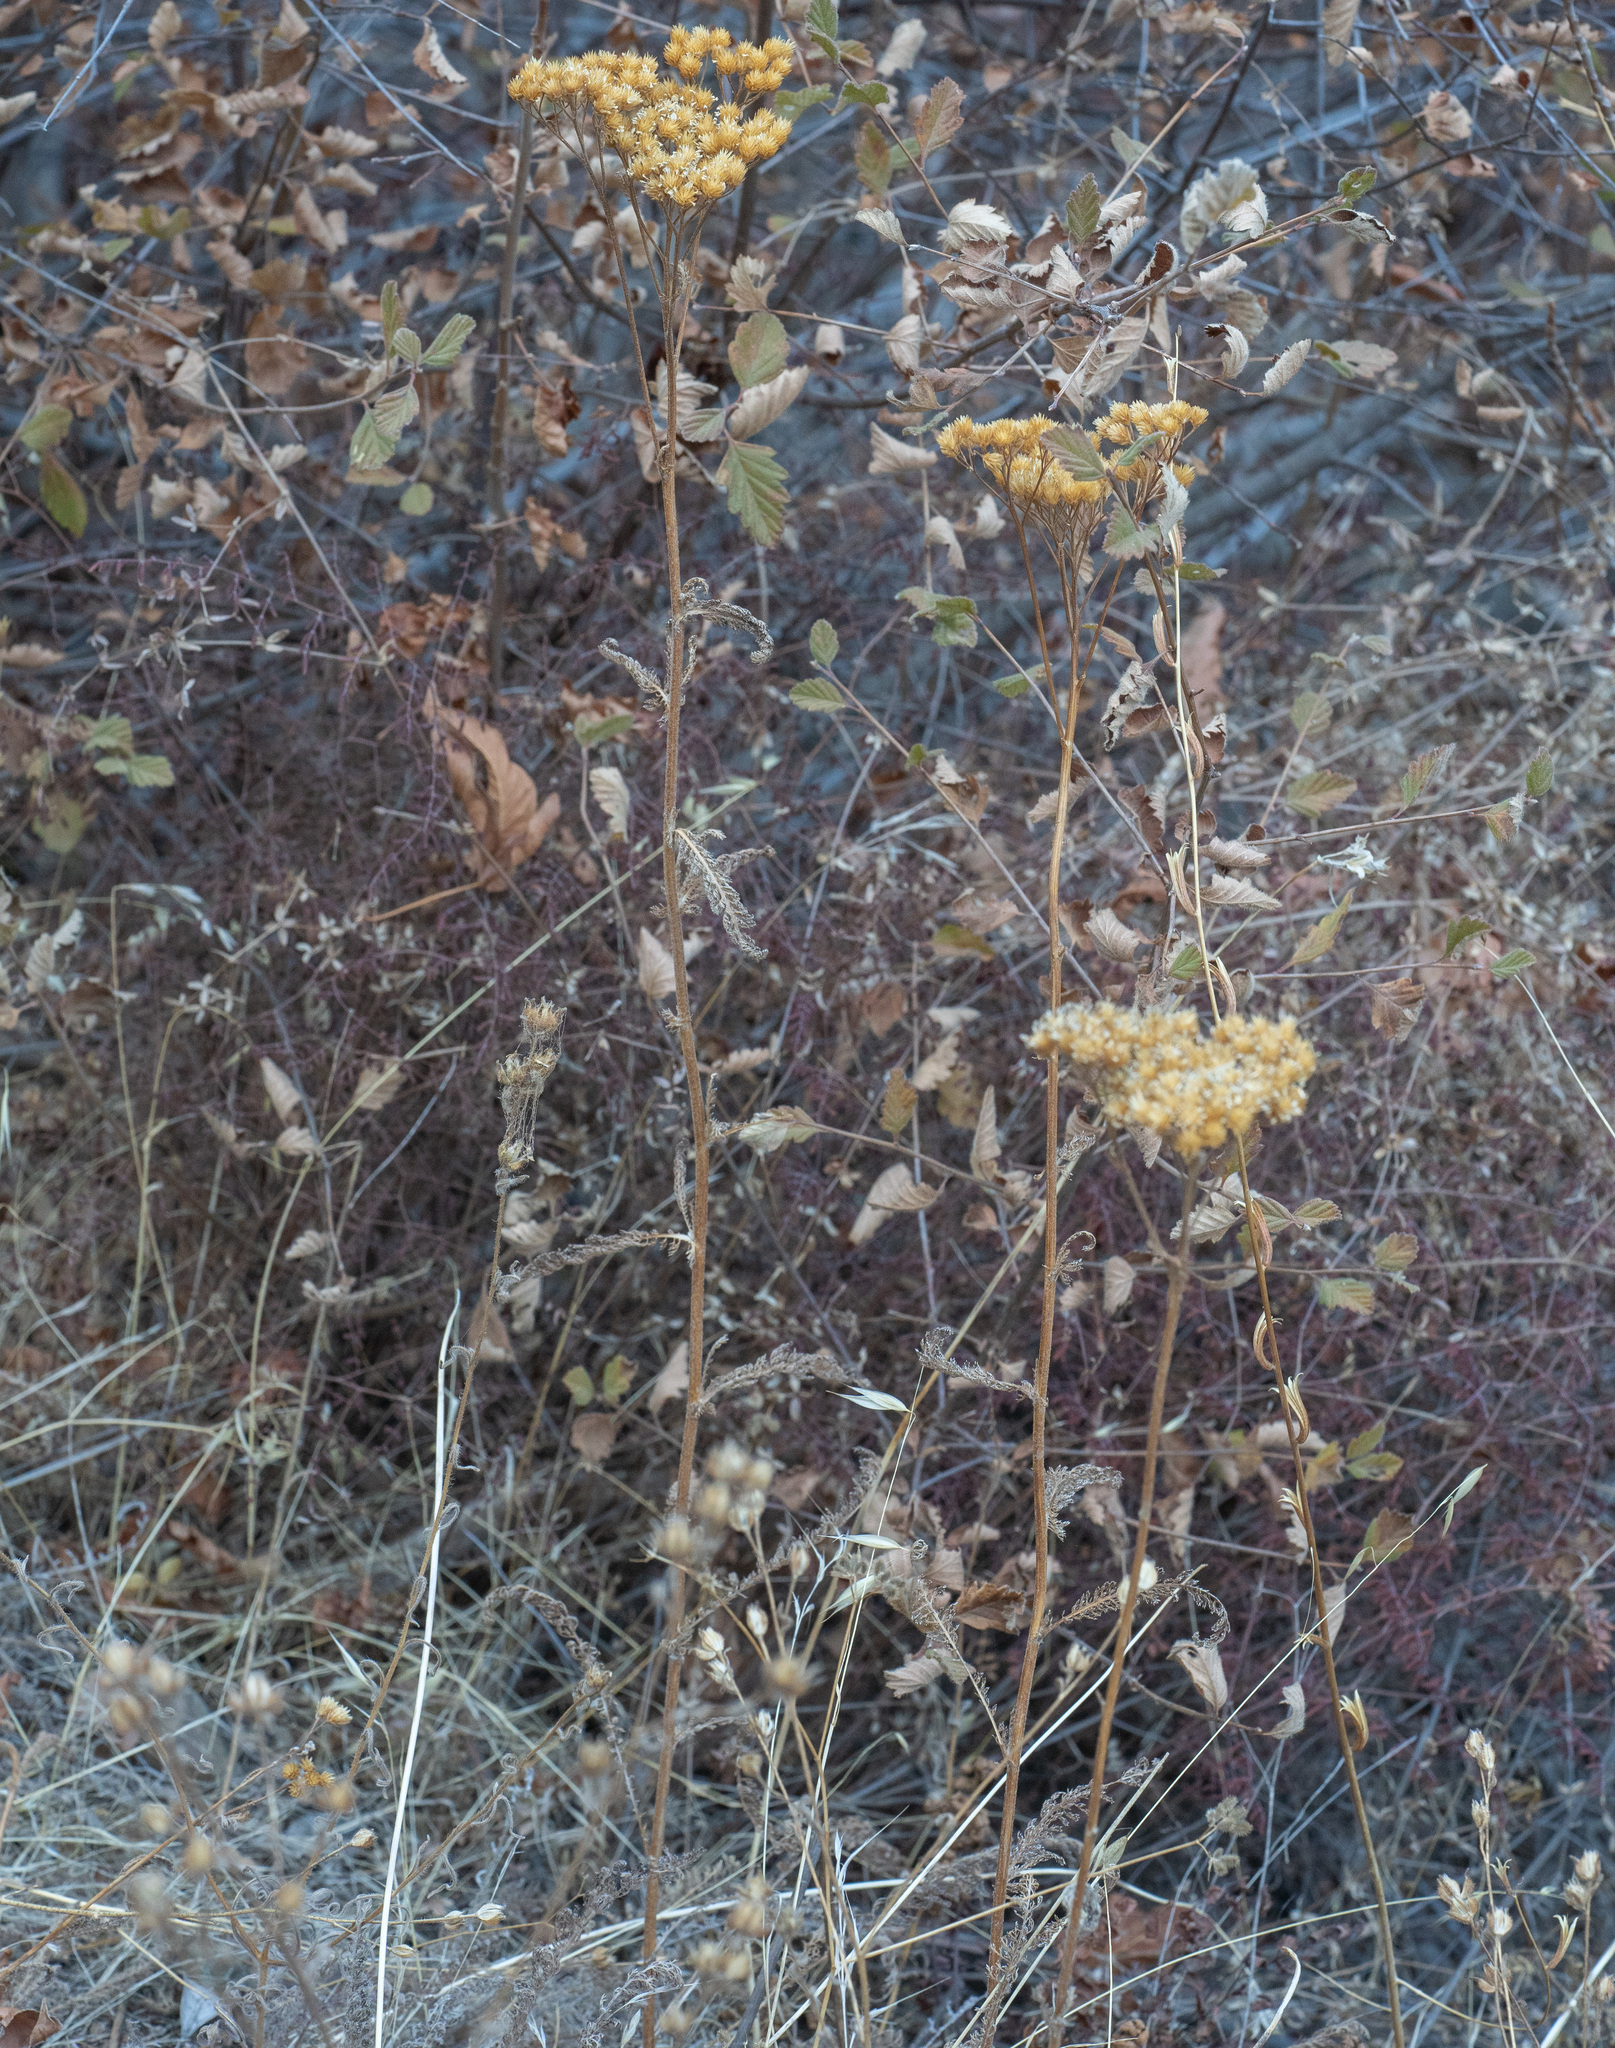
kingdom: Plantae
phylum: Tracheophyta
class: Magnoliopsida
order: Asterales
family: Asteraceae
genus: Achillea
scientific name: Achillea millefolium
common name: Yarrow
